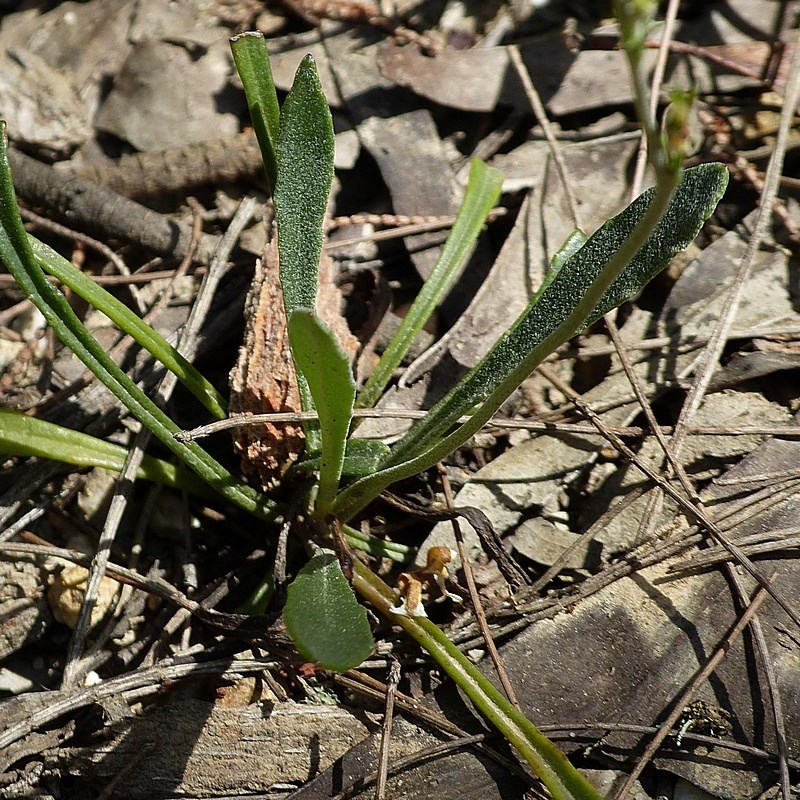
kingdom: Plantae
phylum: Tracheophyta
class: Magnoliopsida
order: Asterales
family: Goodeniaceae
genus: Goodenia
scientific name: Goodenia bellidifolia
